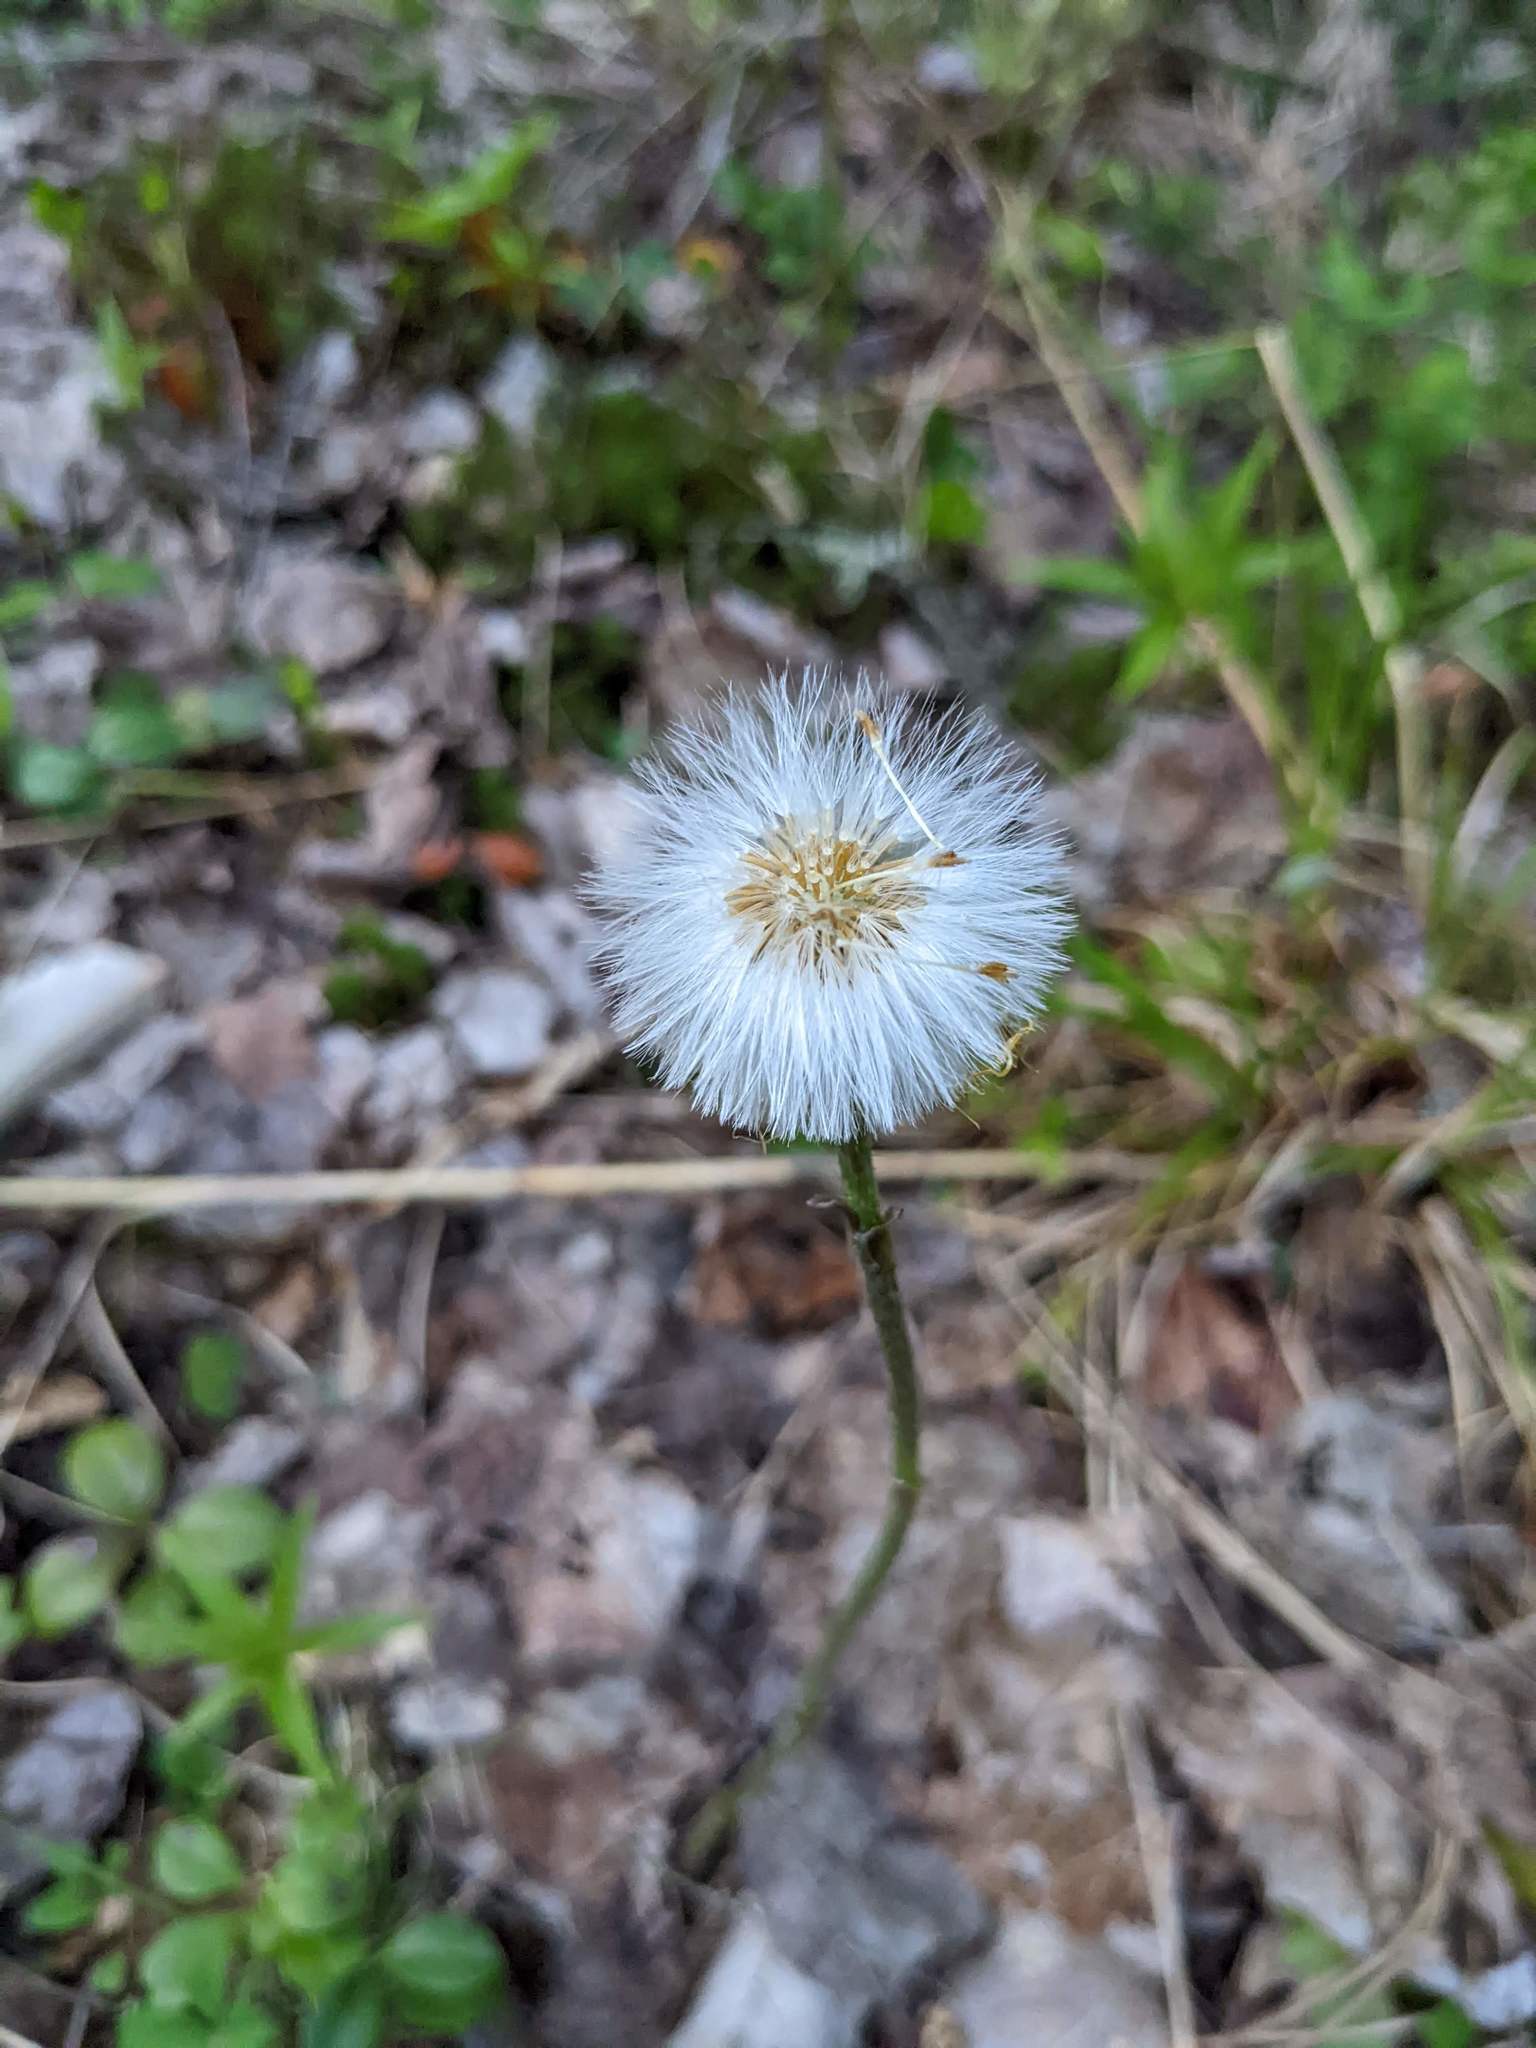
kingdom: Plantae
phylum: Tracheophyta
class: Magnoliopsida
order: Asterales
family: Asteraceae
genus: Tussilago
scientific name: Tussilago farfara
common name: Coltsfoot
